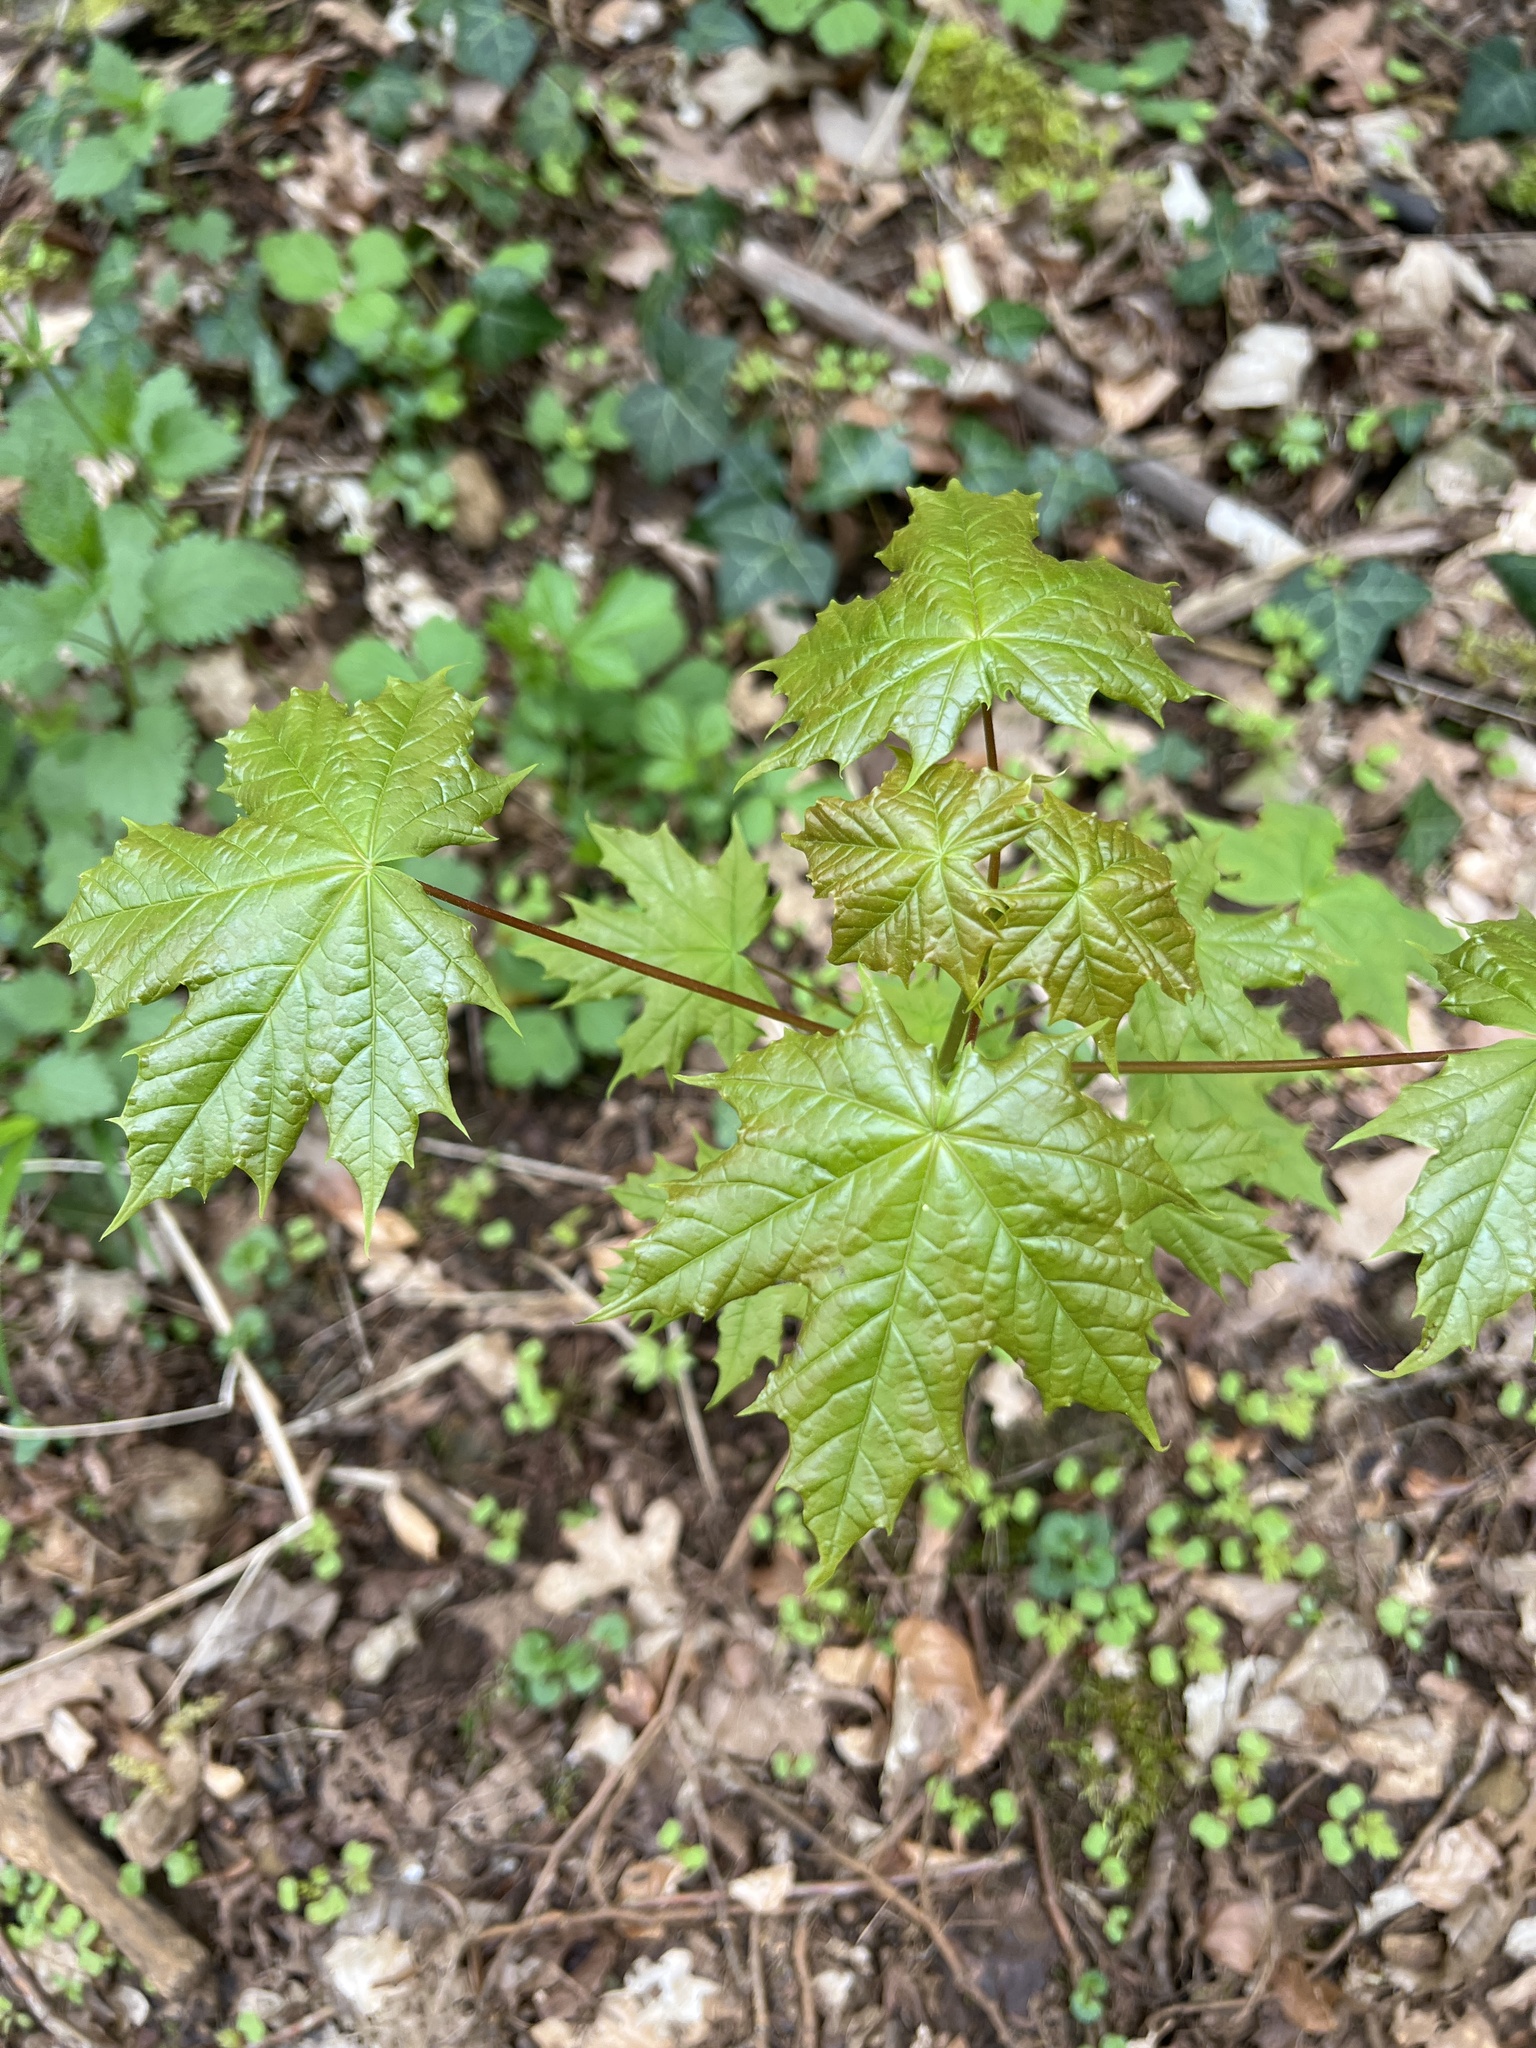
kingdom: Plantae
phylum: Tracheophyta
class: Magnoliopsida
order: Sapindales
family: Sapindaceae
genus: Acer
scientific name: Acer platanoides
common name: Norway maple
